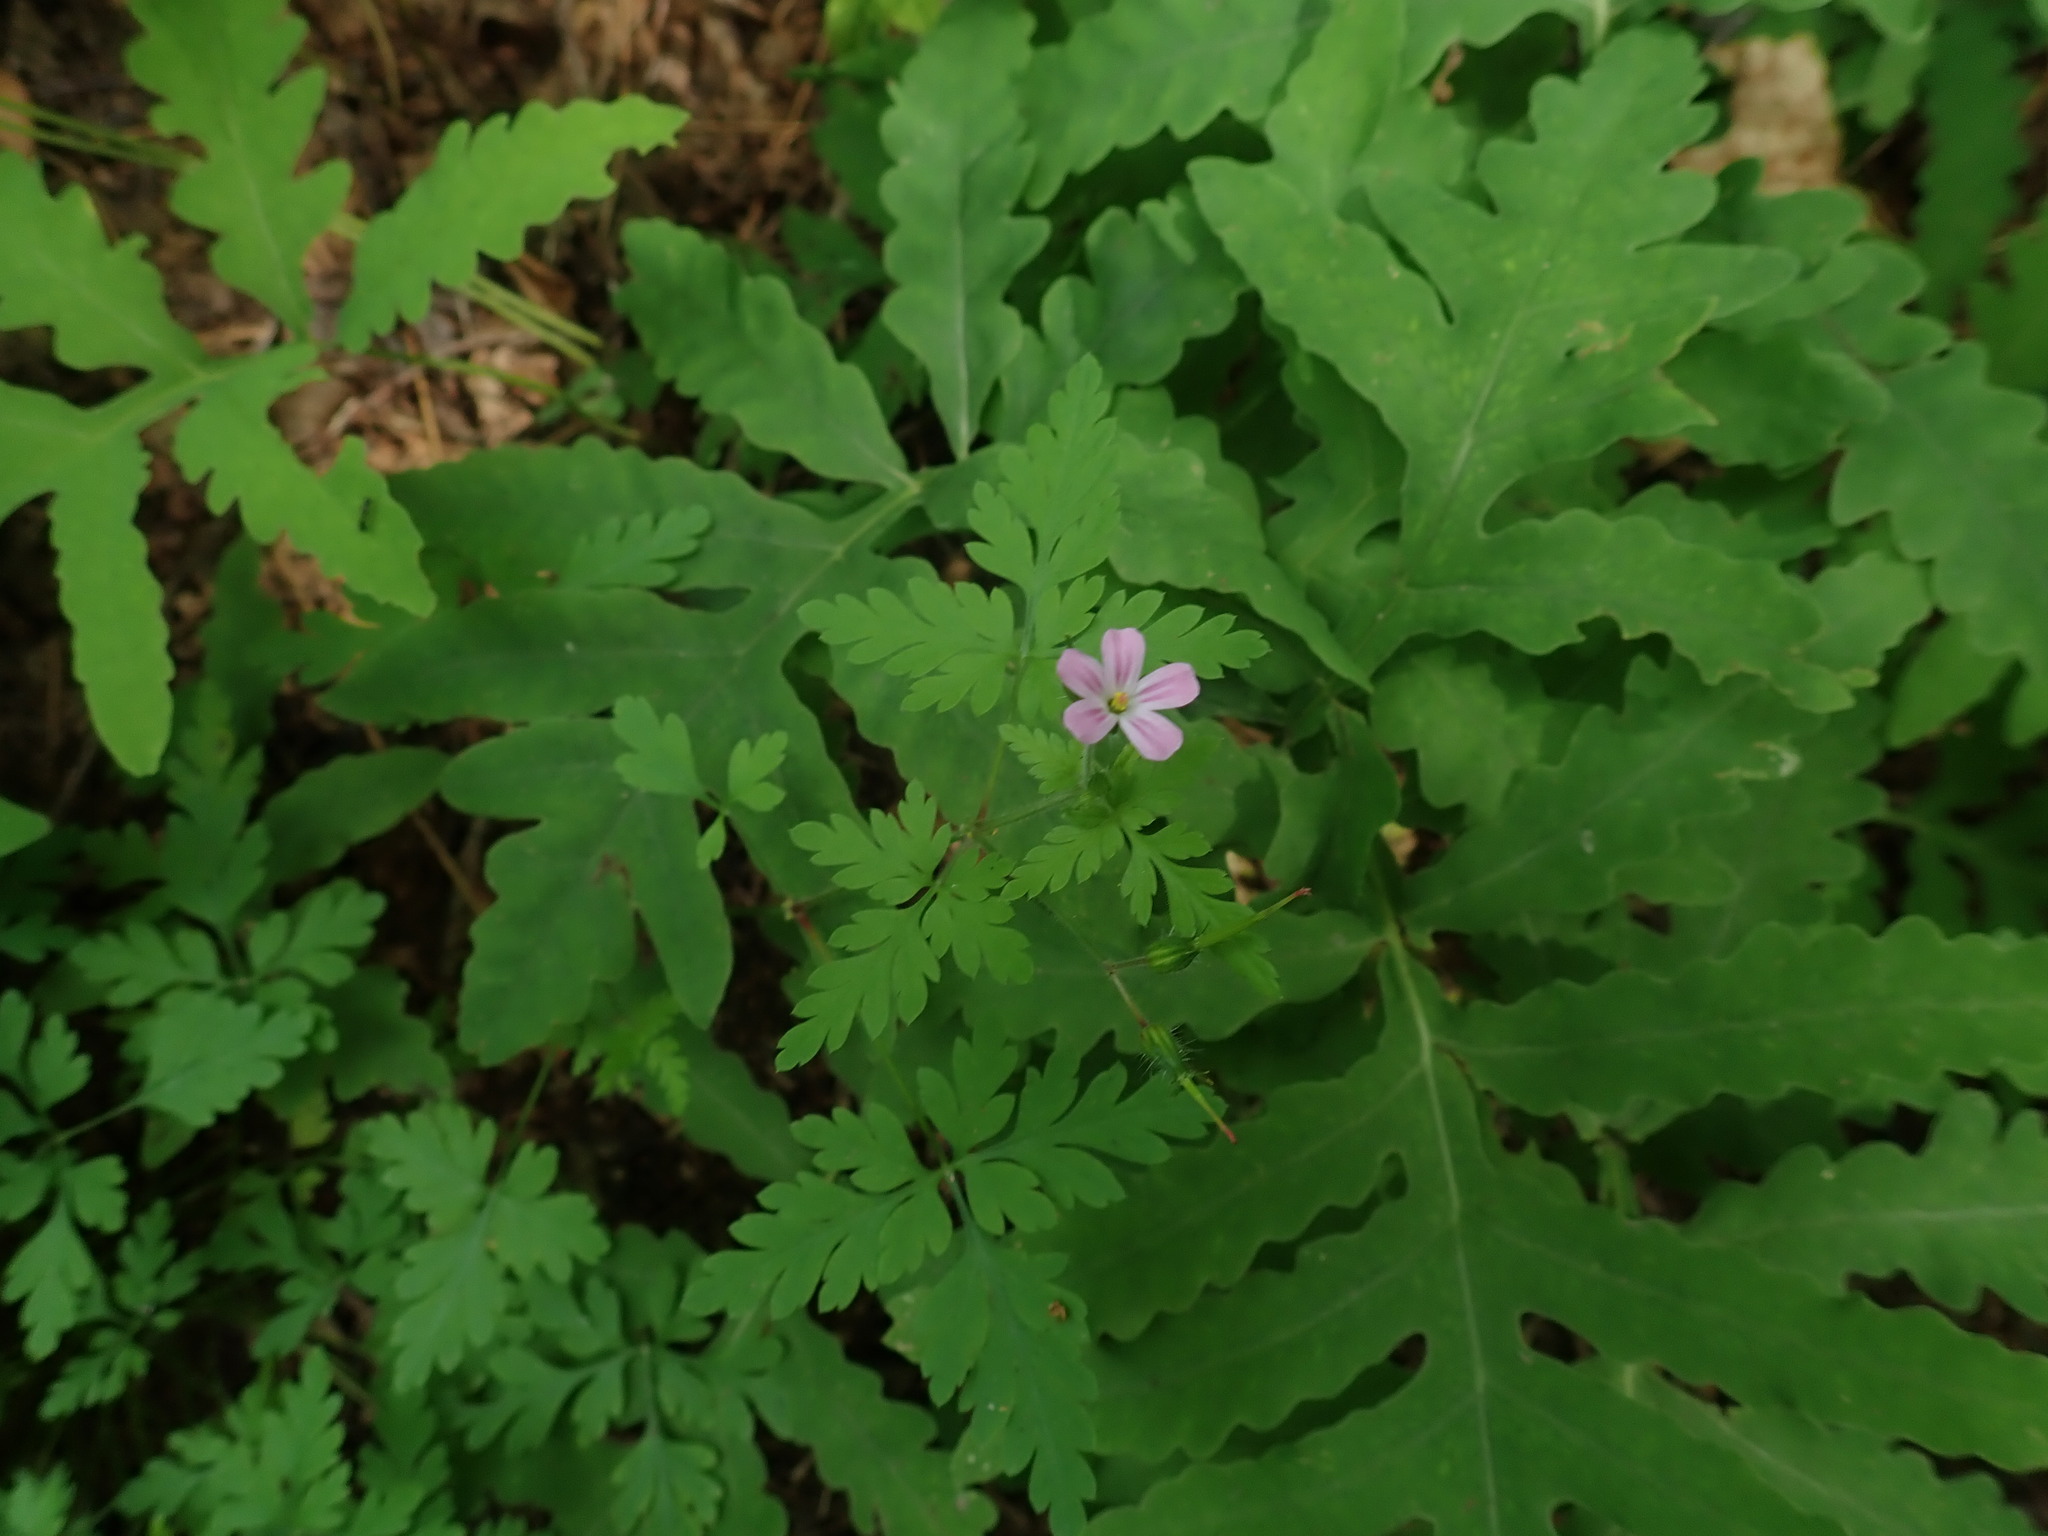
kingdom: Plantae
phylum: Tracheophyta
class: Magnoliopsida
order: Geraniales
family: Geraniaceae
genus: Geranium
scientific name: Geranium robertianum
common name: Herb-robert
